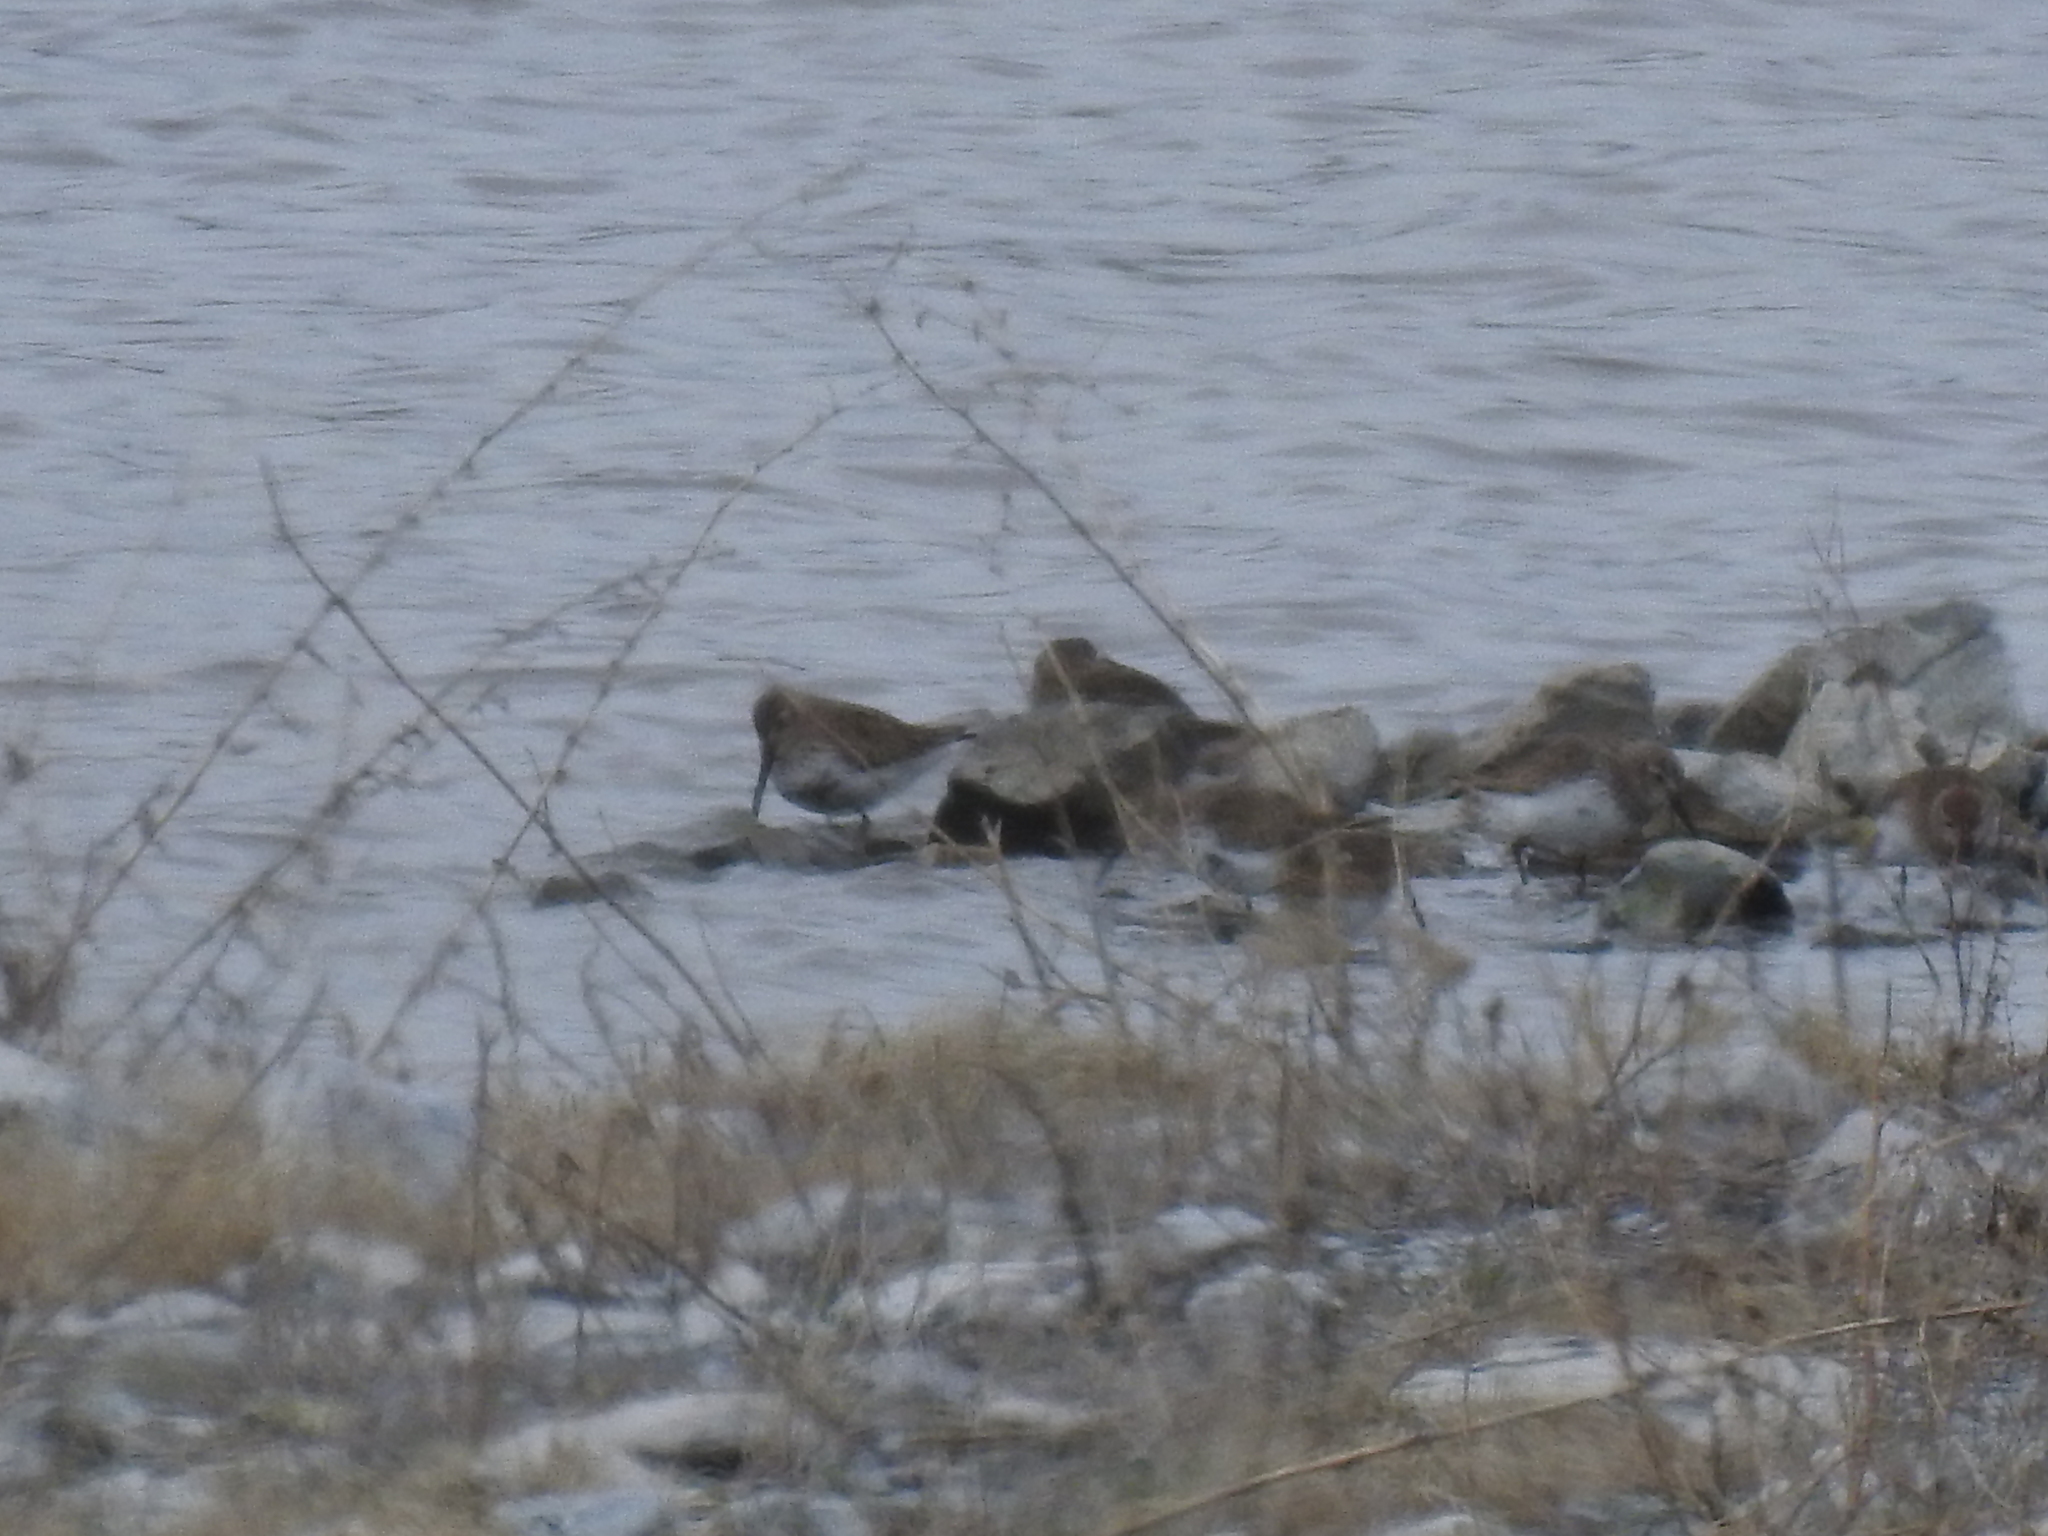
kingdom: Animalia
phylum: Chordata
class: Aves
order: Charadriiformes
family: Scolopacidae
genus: Calidris
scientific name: Calidris alpina
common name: Dunlin
